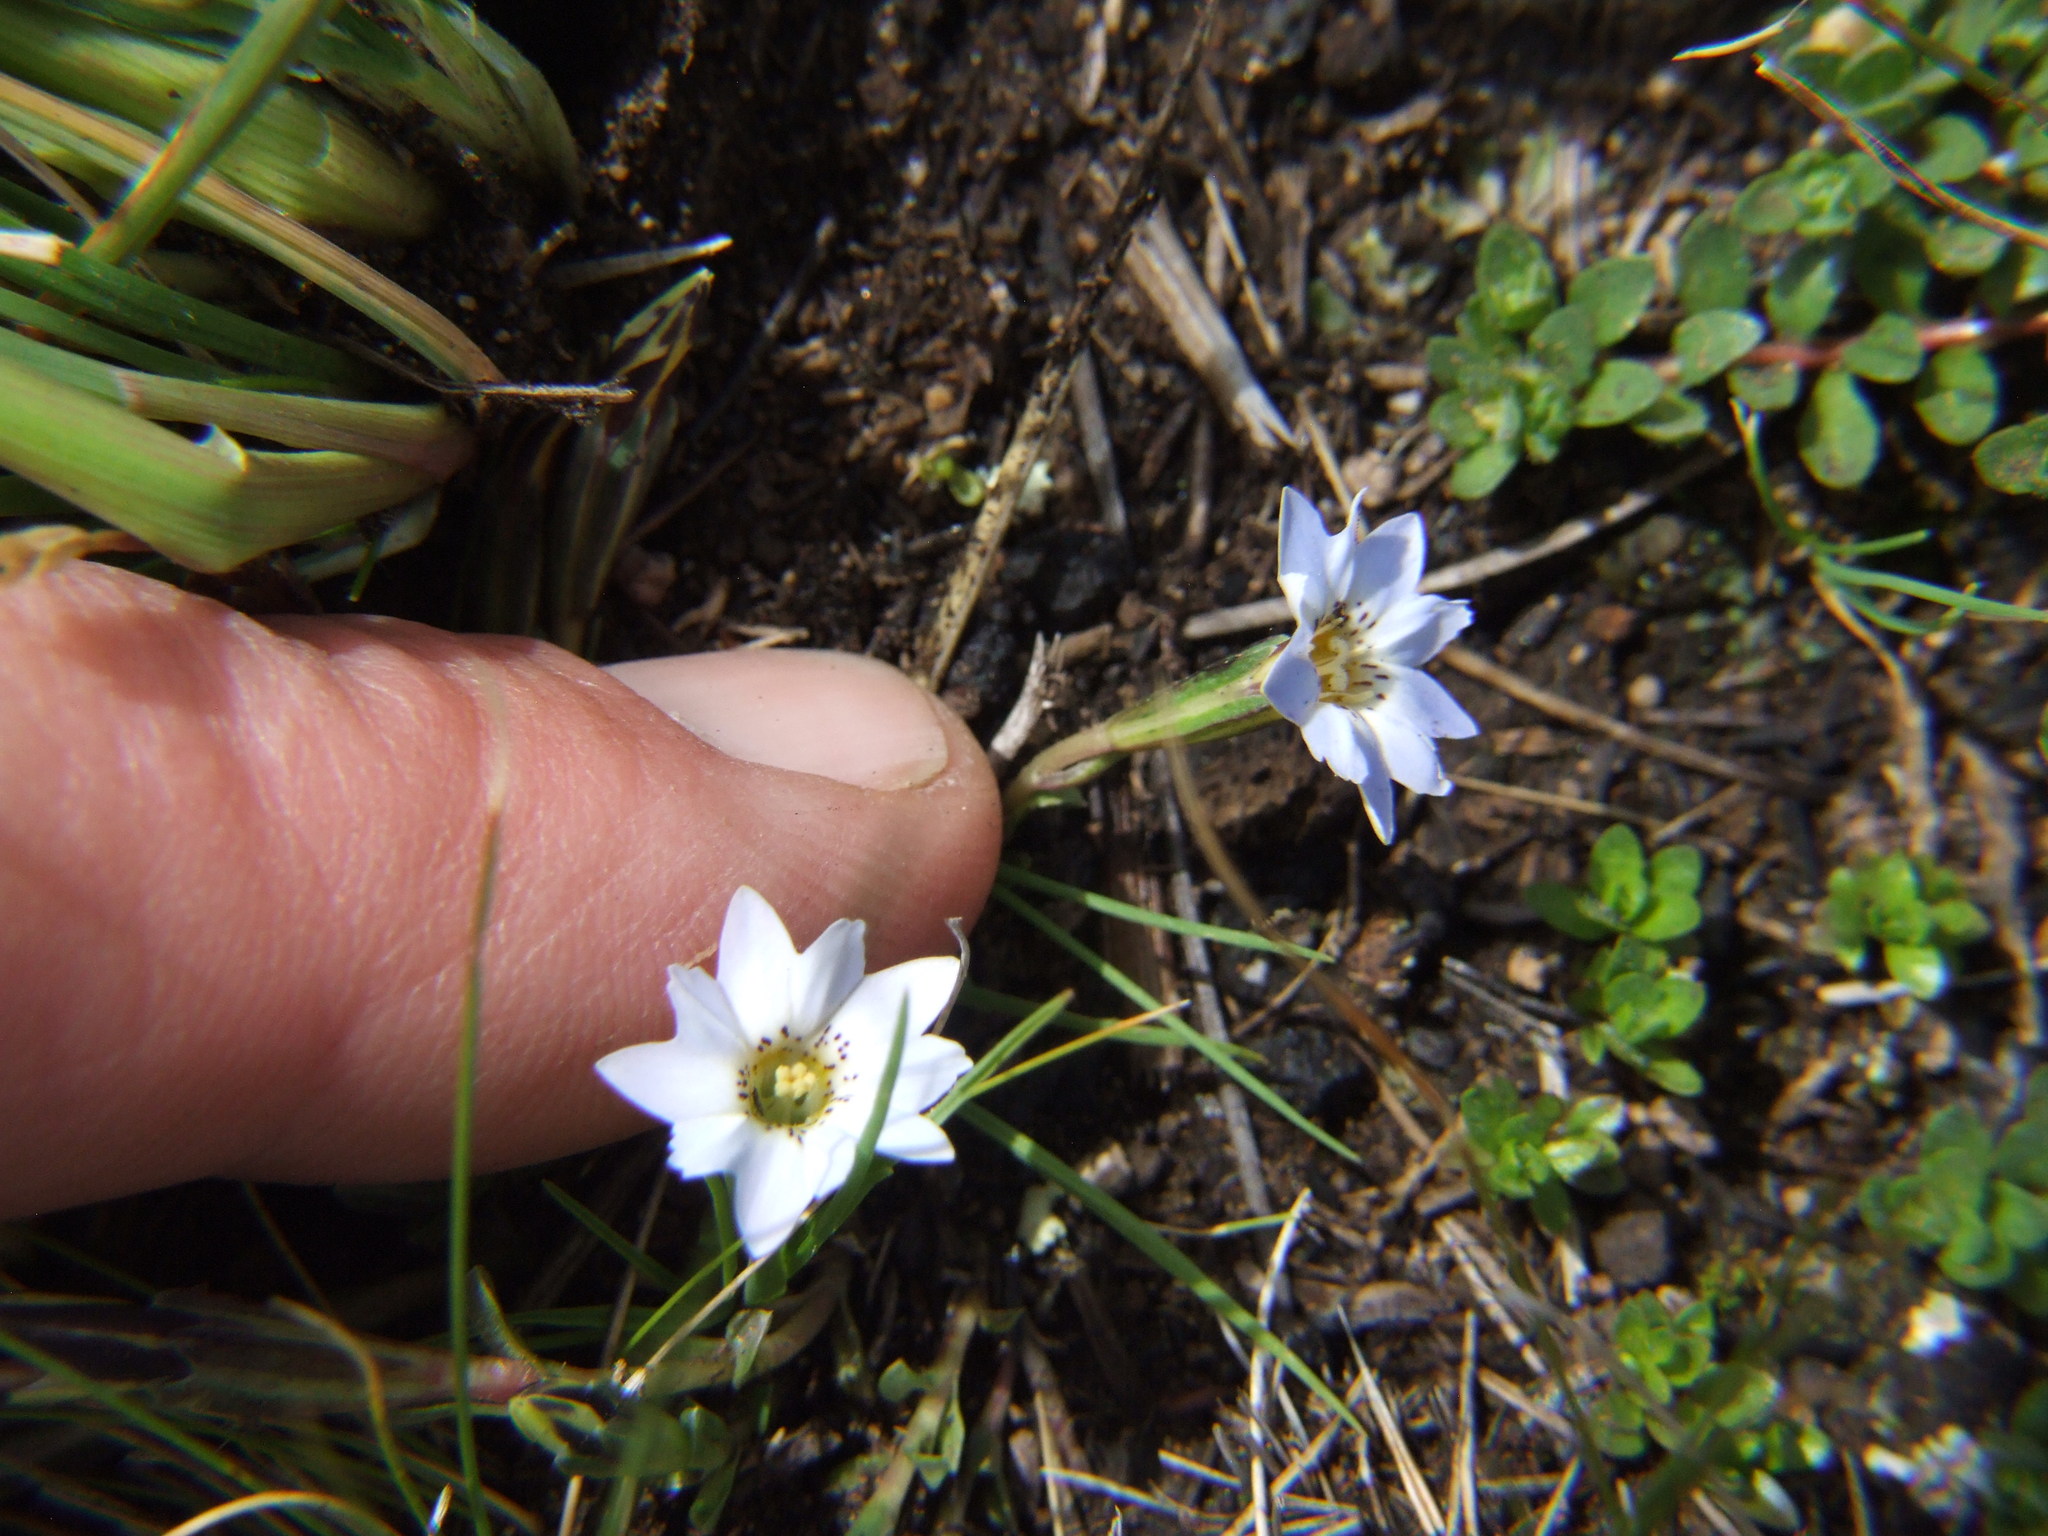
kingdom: Plantae
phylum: Tracheophyta
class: Magnoliopsida
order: Gentianales
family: Gentianaceae
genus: Gentiana
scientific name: Gentiana sedifolia
